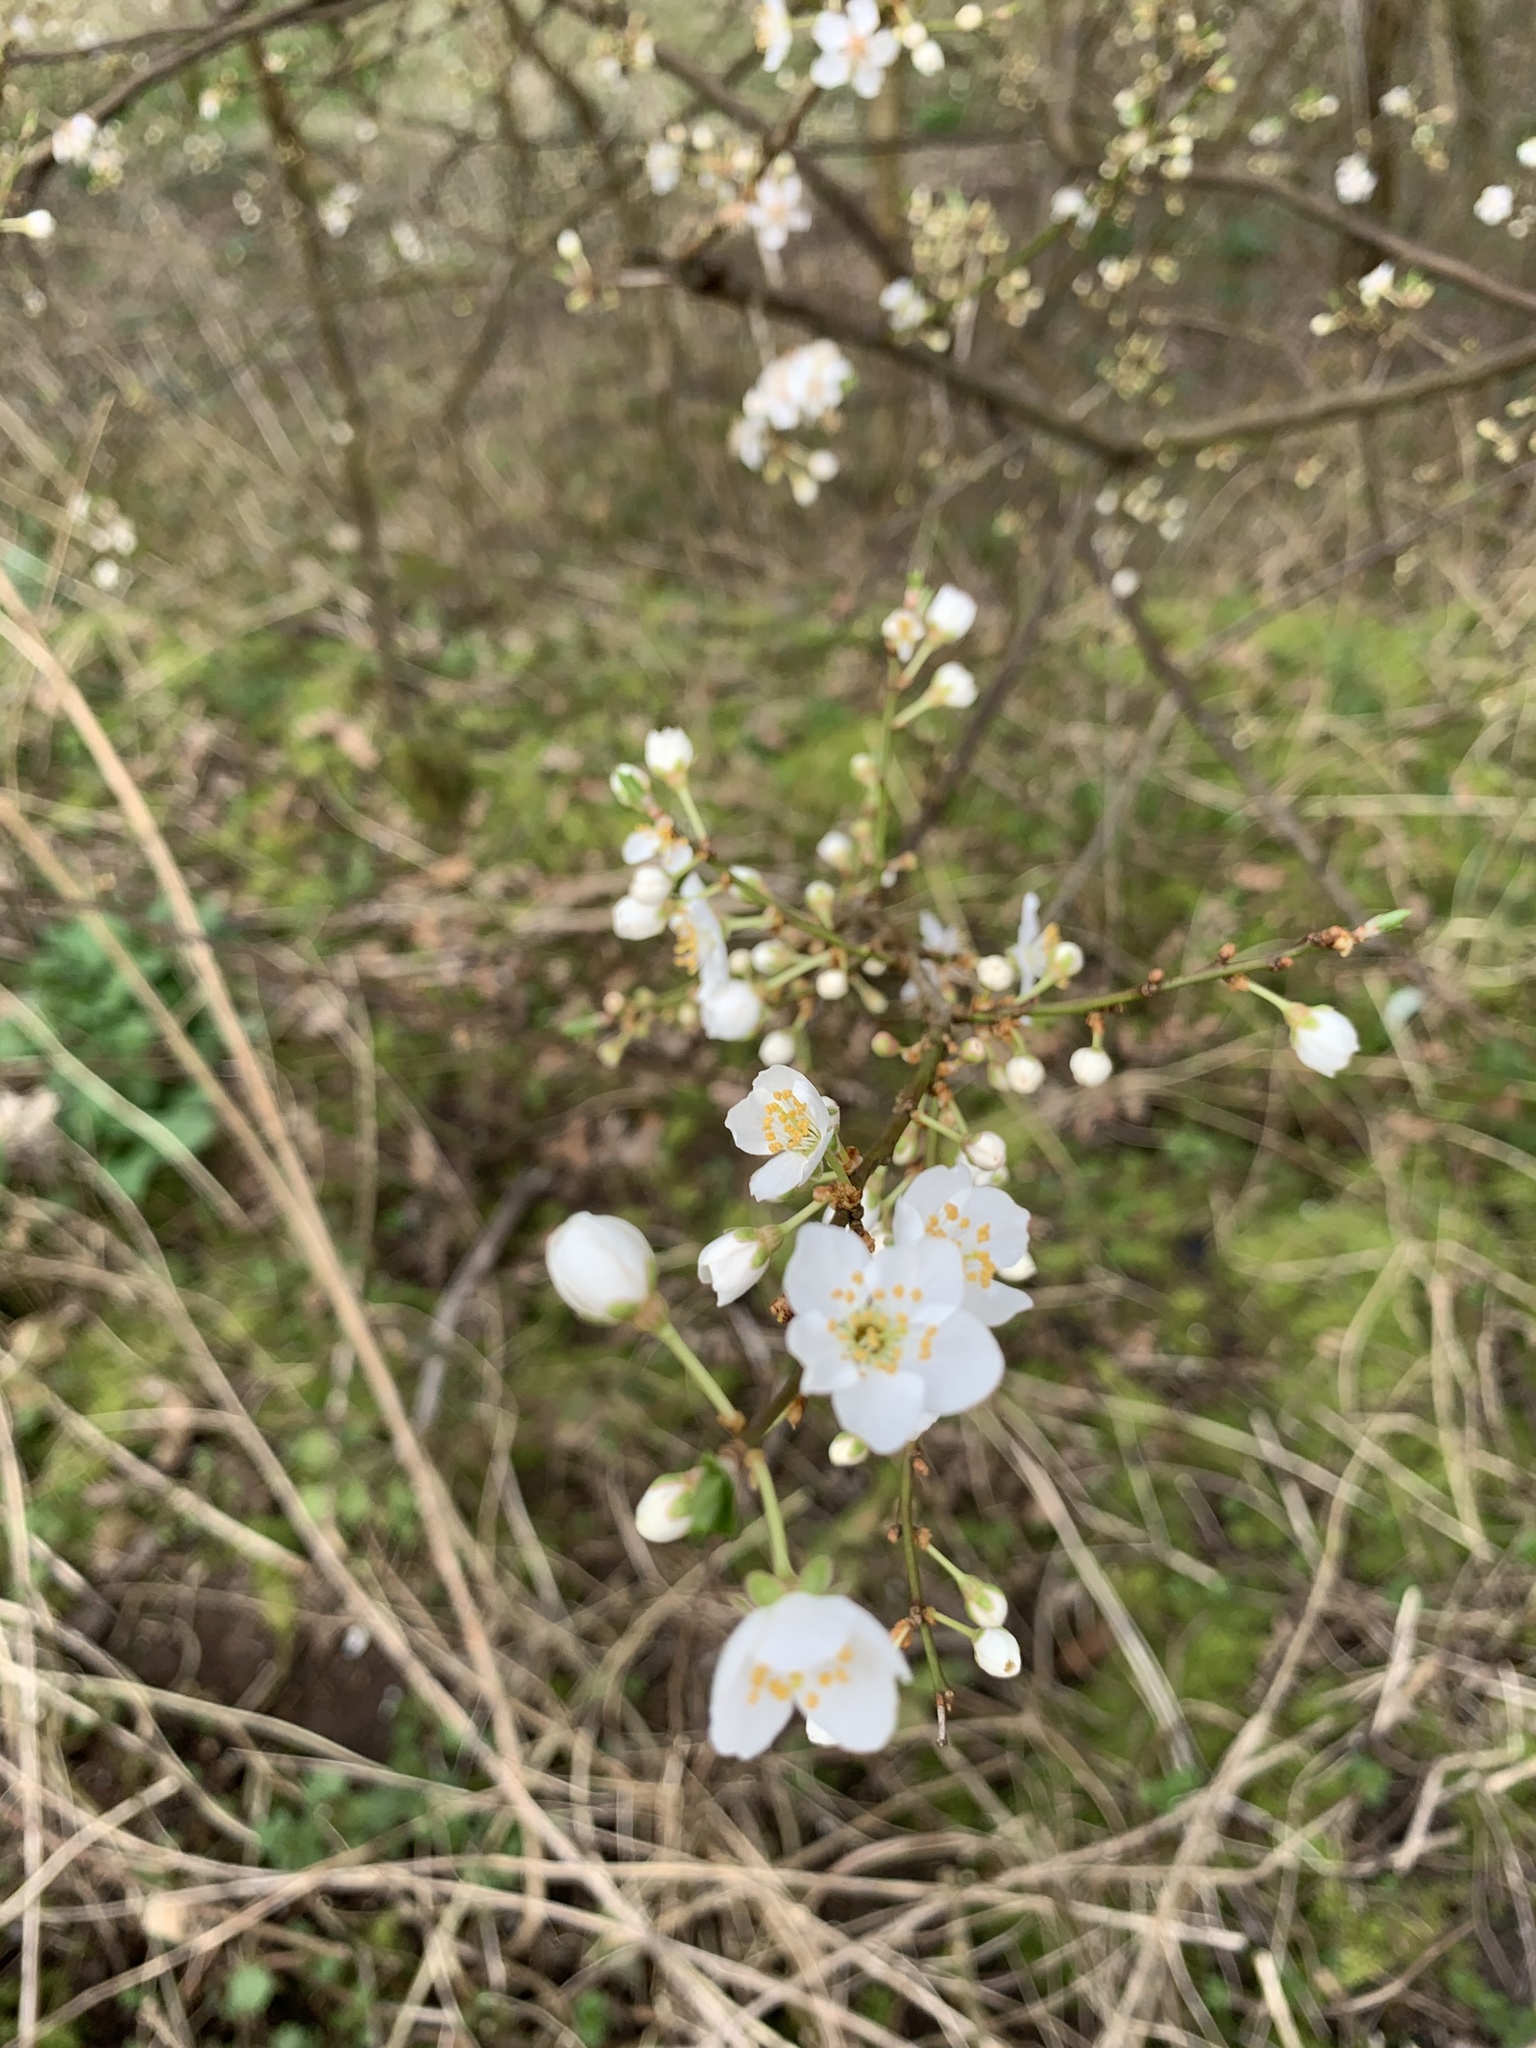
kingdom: Plantae
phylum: Tracheophyta
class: Magnoliopsida
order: Rosales
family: Rosaceae
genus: Prunus
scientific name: Prunus cerasifera
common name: Cherry plum
